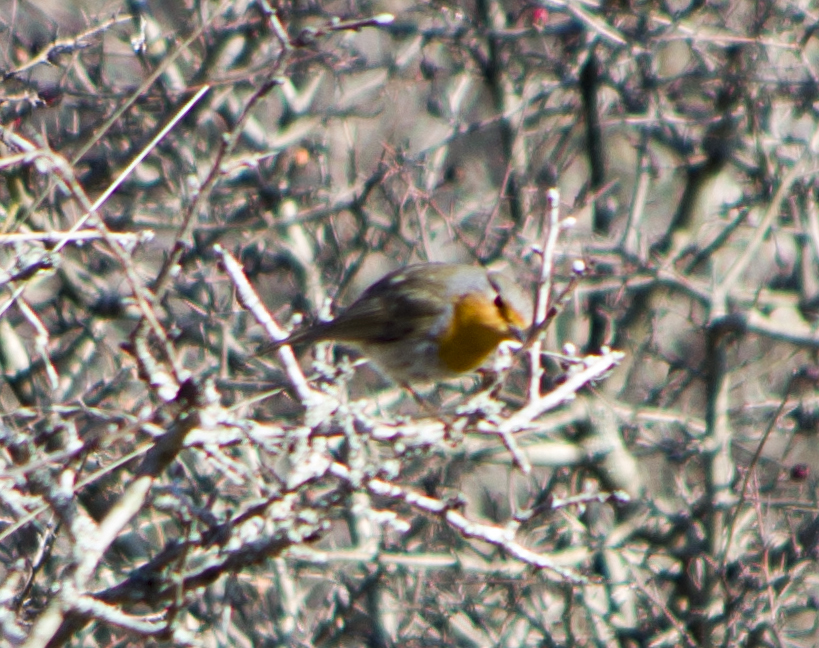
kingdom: Animalia
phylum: Chordata
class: Aves
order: Passeriformes
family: Muscicapidae
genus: Erithacus
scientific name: Erithacus rubecula
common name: European robin
